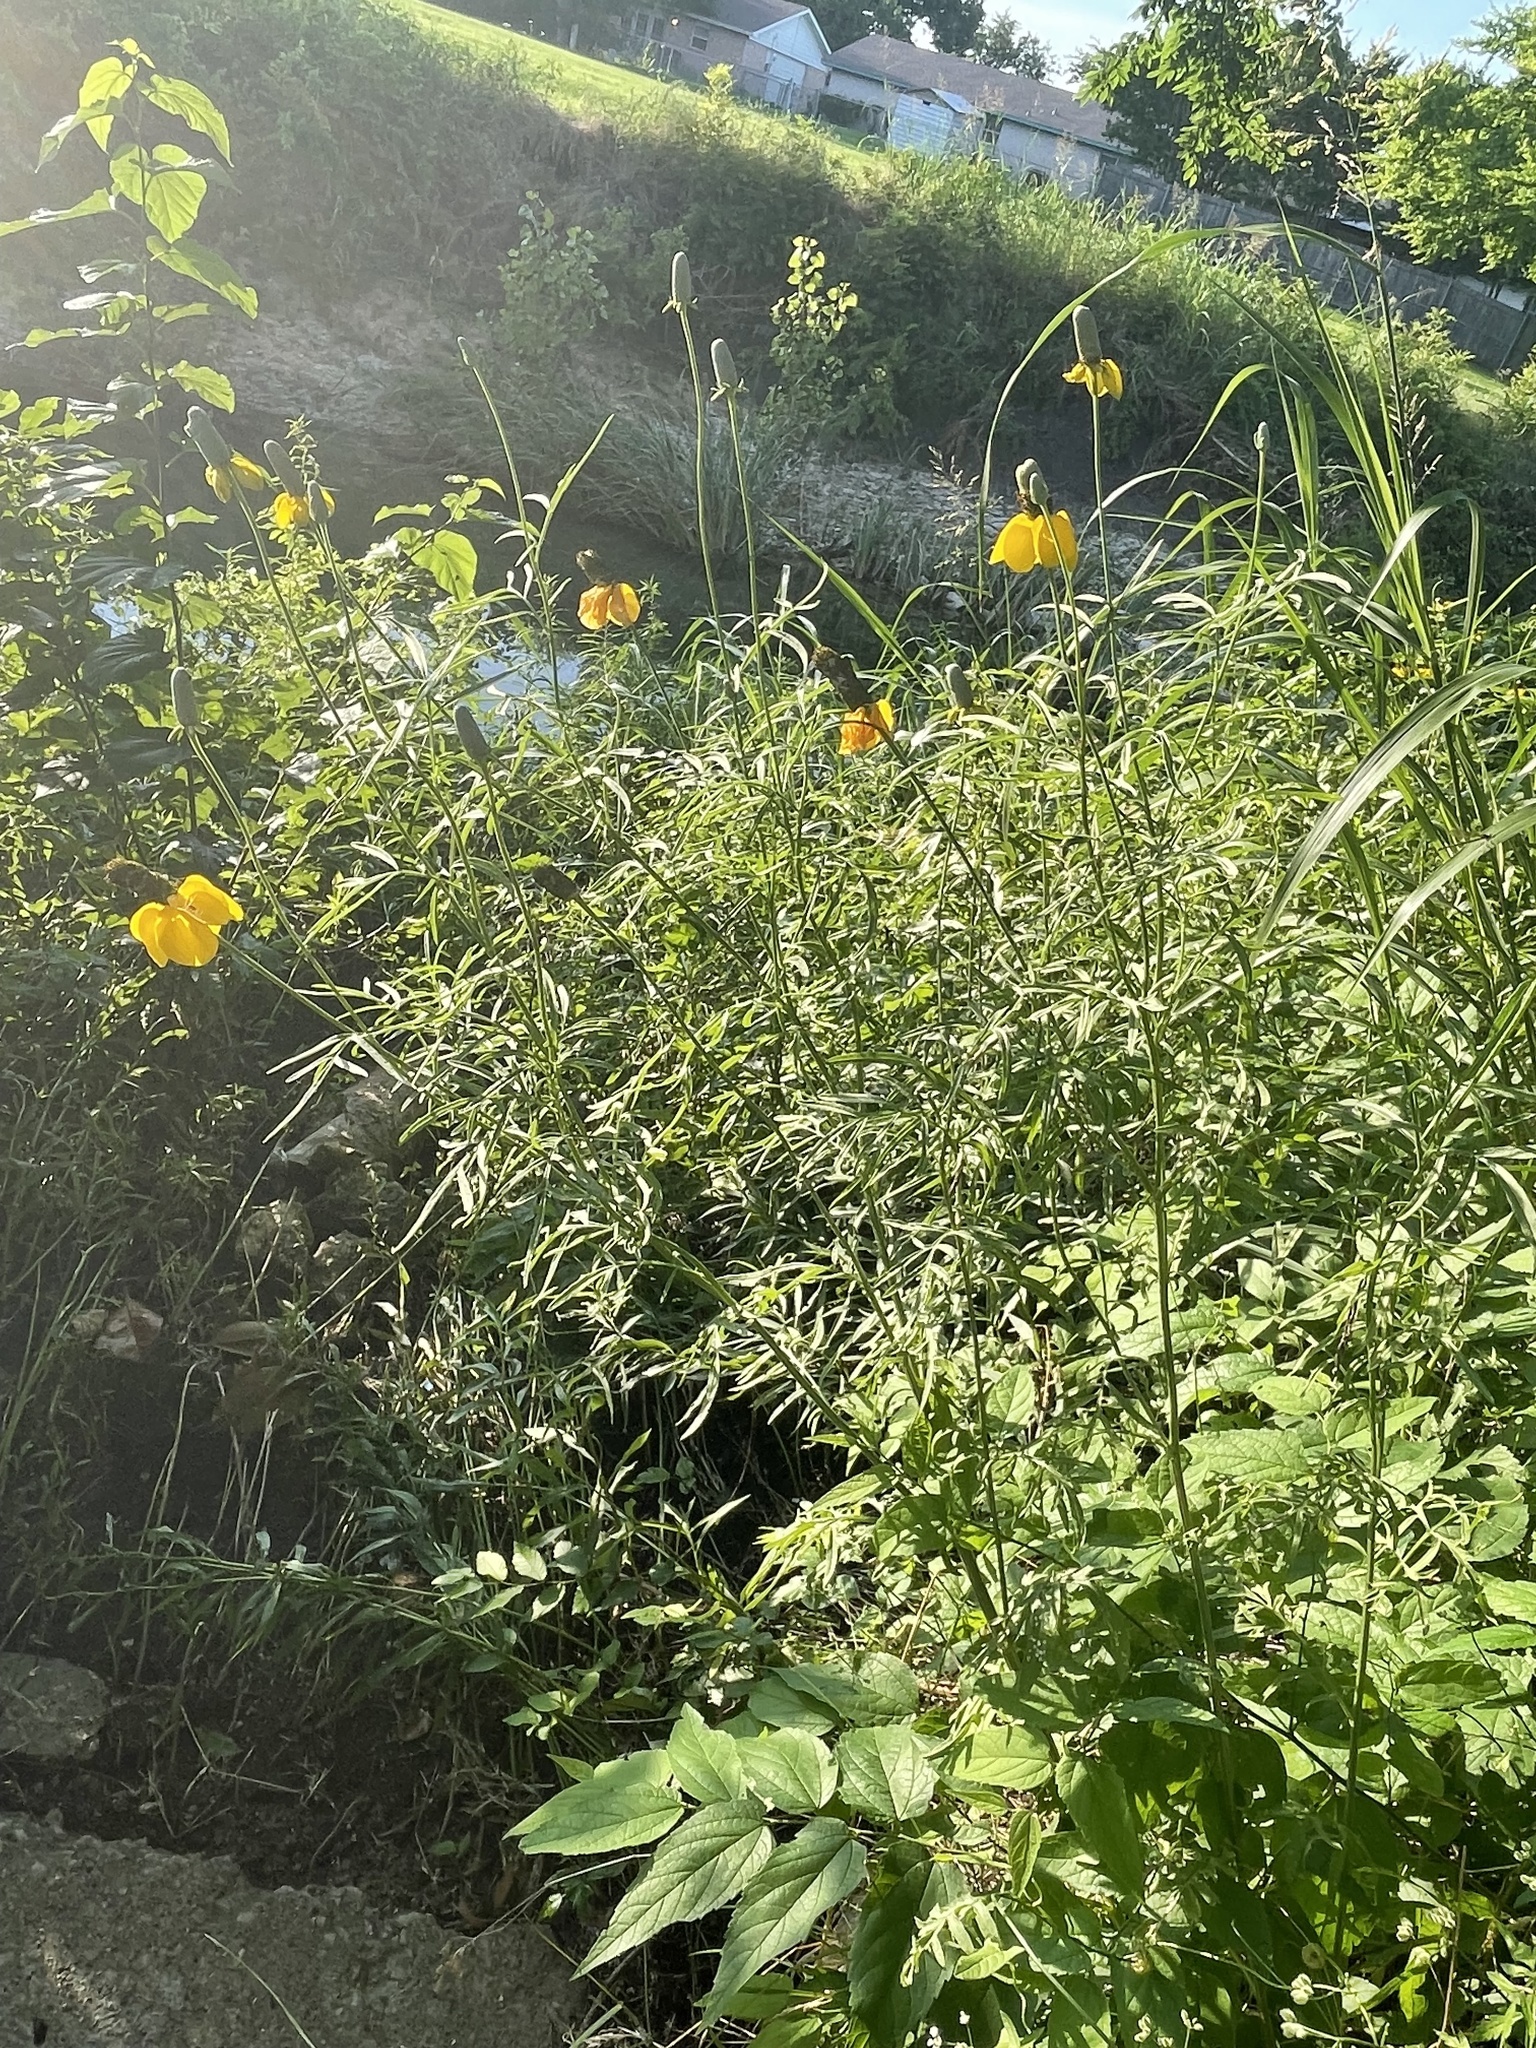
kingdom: Plantae
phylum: Tracheophyta
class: Magnoliopsida
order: Asterales
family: Asteraceae
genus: Ratibida
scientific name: Ratibida columnifera
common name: Prairie coneflower
